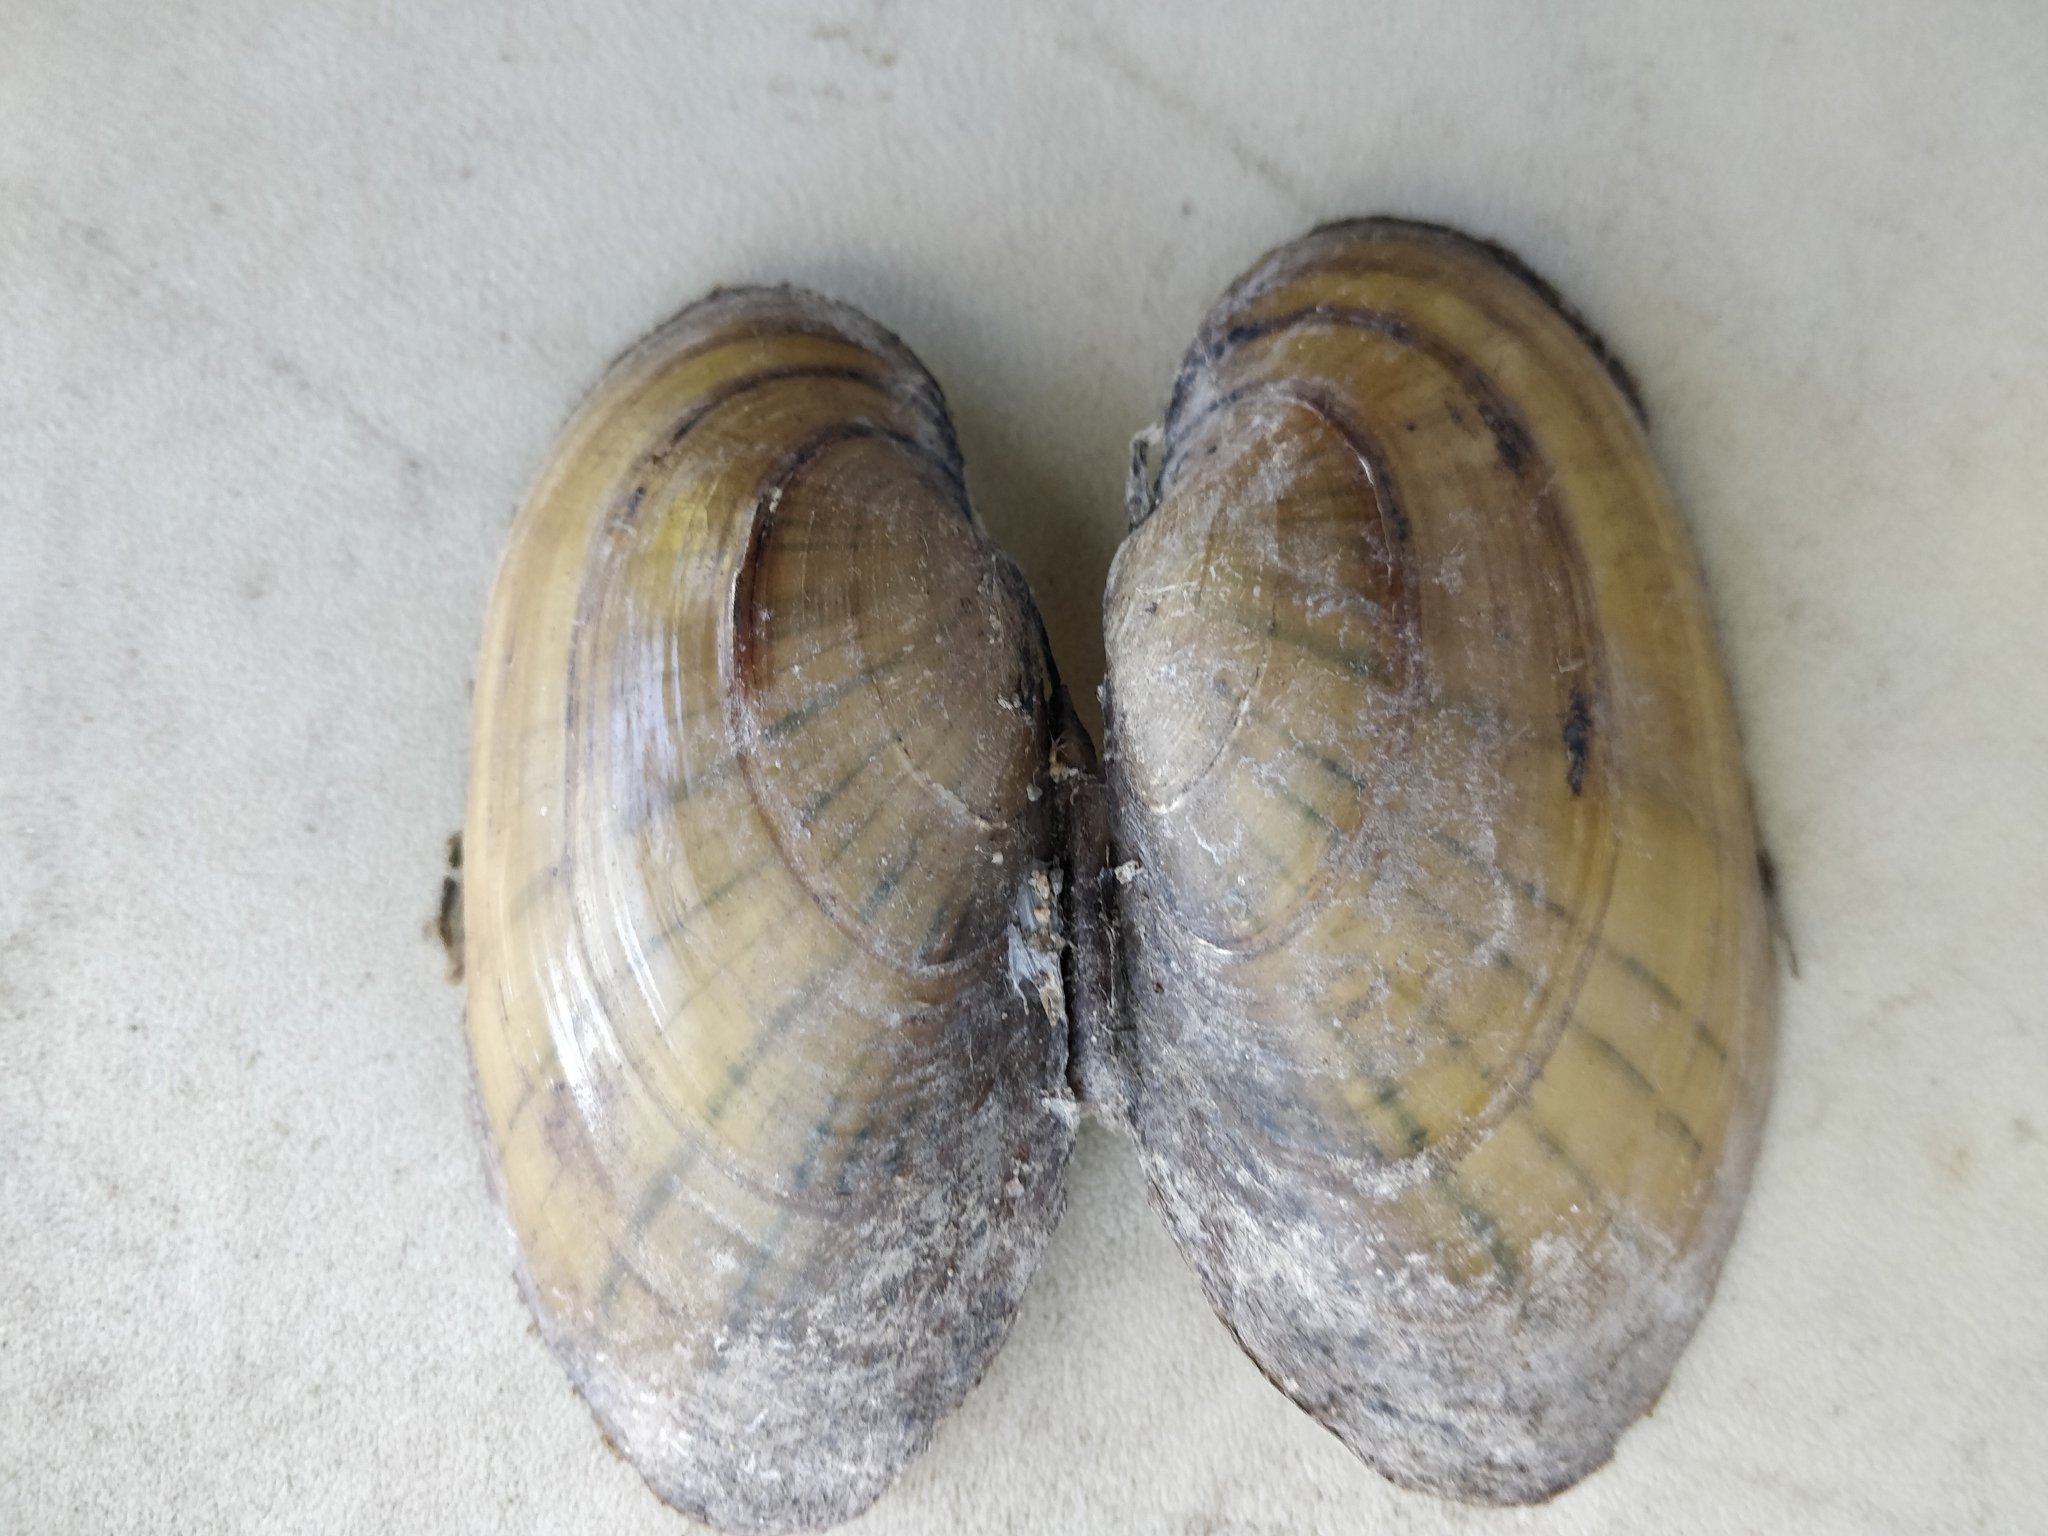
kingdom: Animalia
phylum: Mollusca
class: Bivalvia
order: Unionida
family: Unionidae
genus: Lampsilis
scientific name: Lampsilis siliquoidea
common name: Fatmucket
